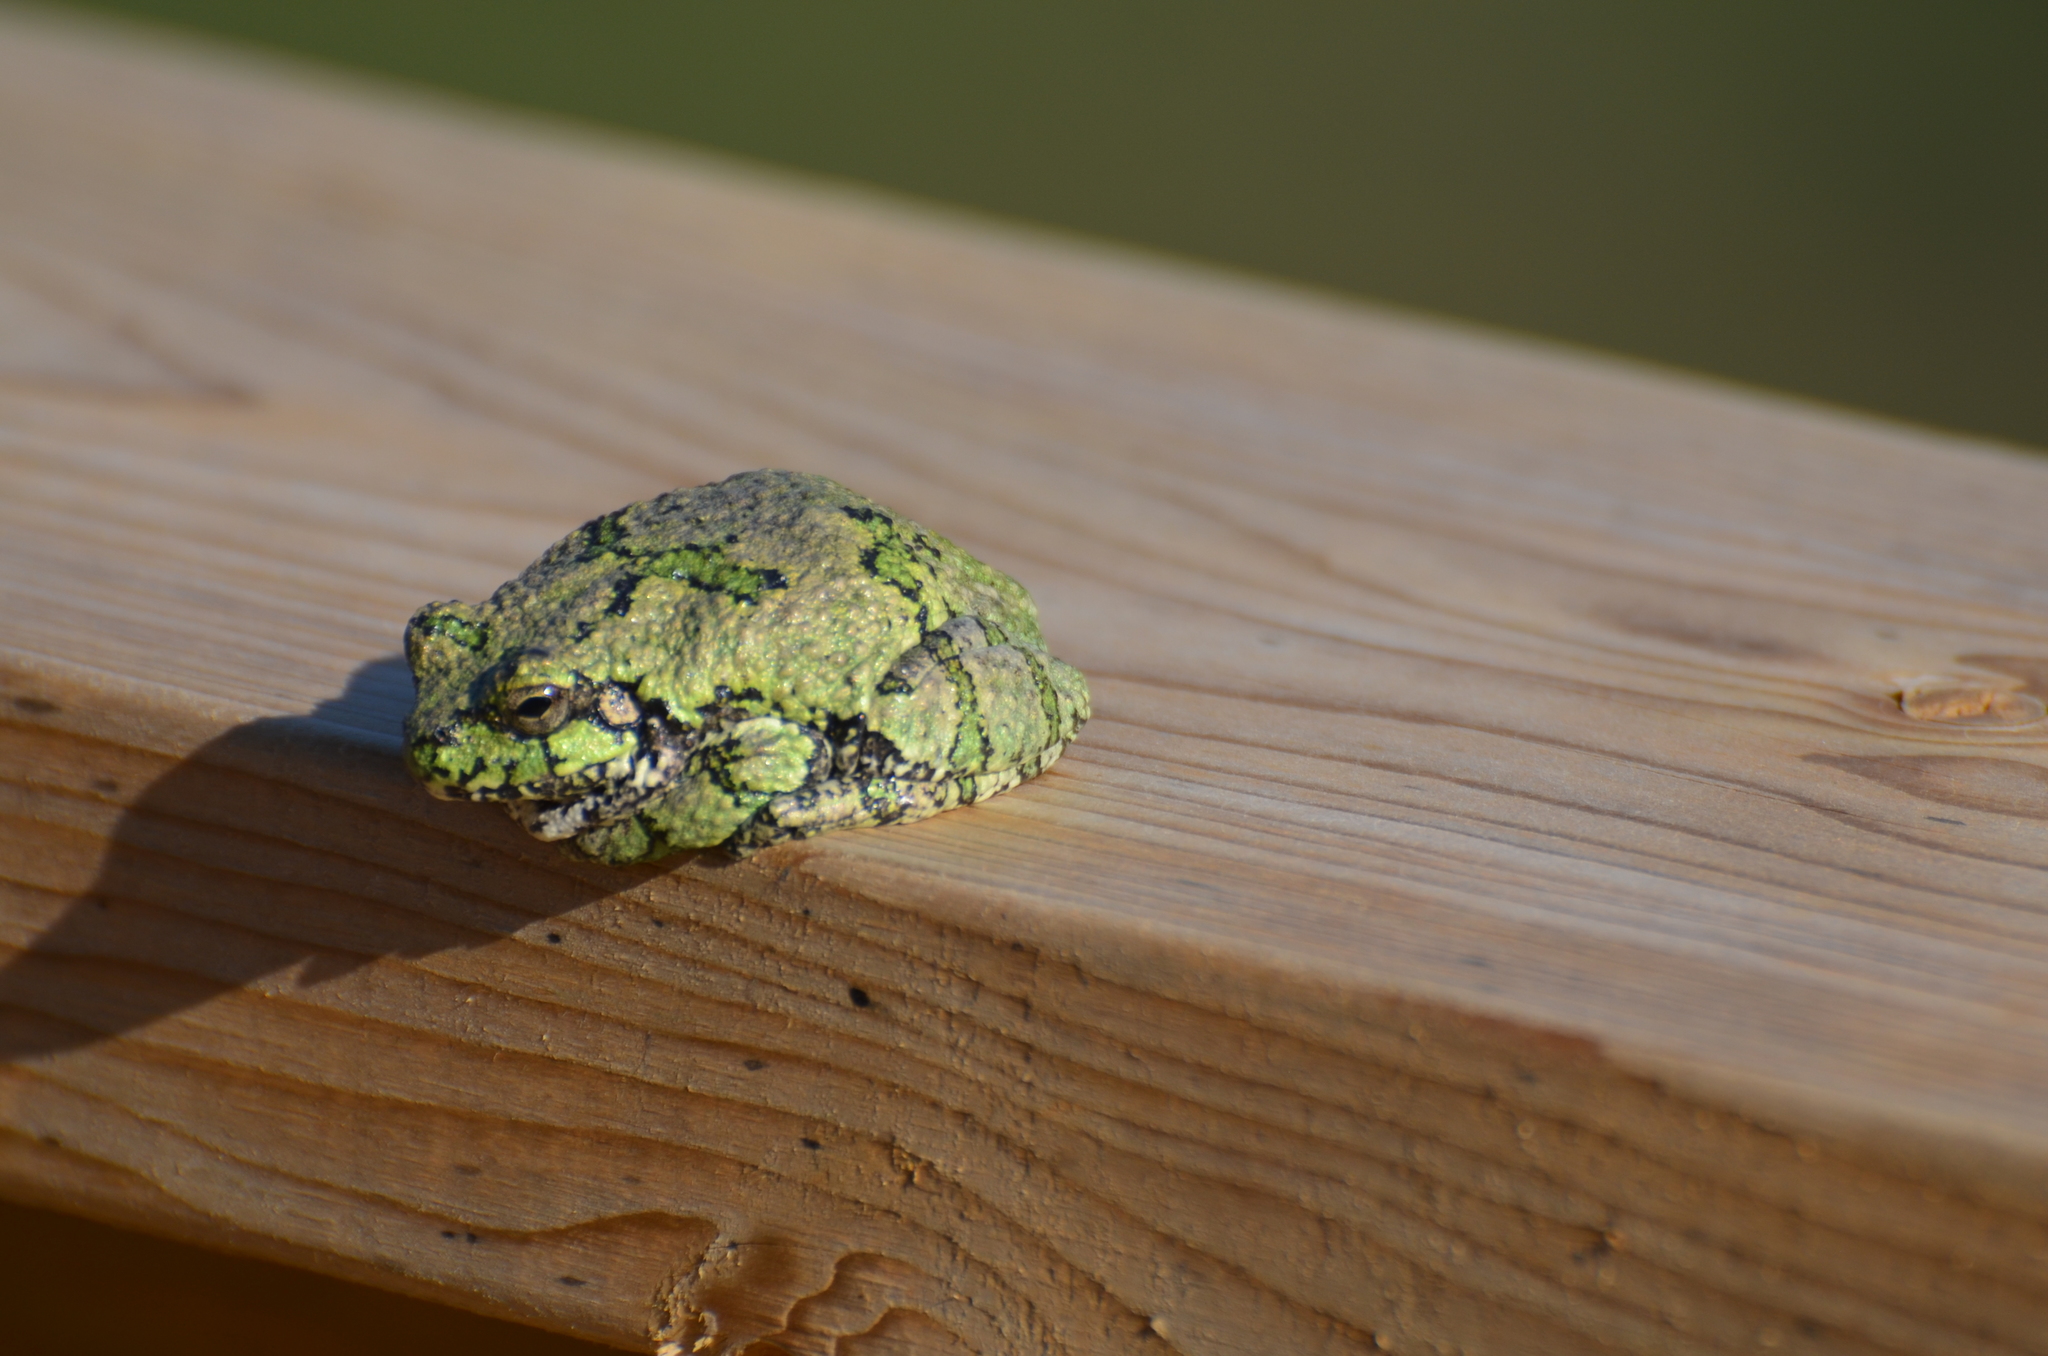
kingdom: Animalia
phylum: Chordata
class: Amphibia
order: Anura
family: Hylidae
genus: Dryophytes
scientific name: Dryophytes versicolor
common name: Gray treefrog
